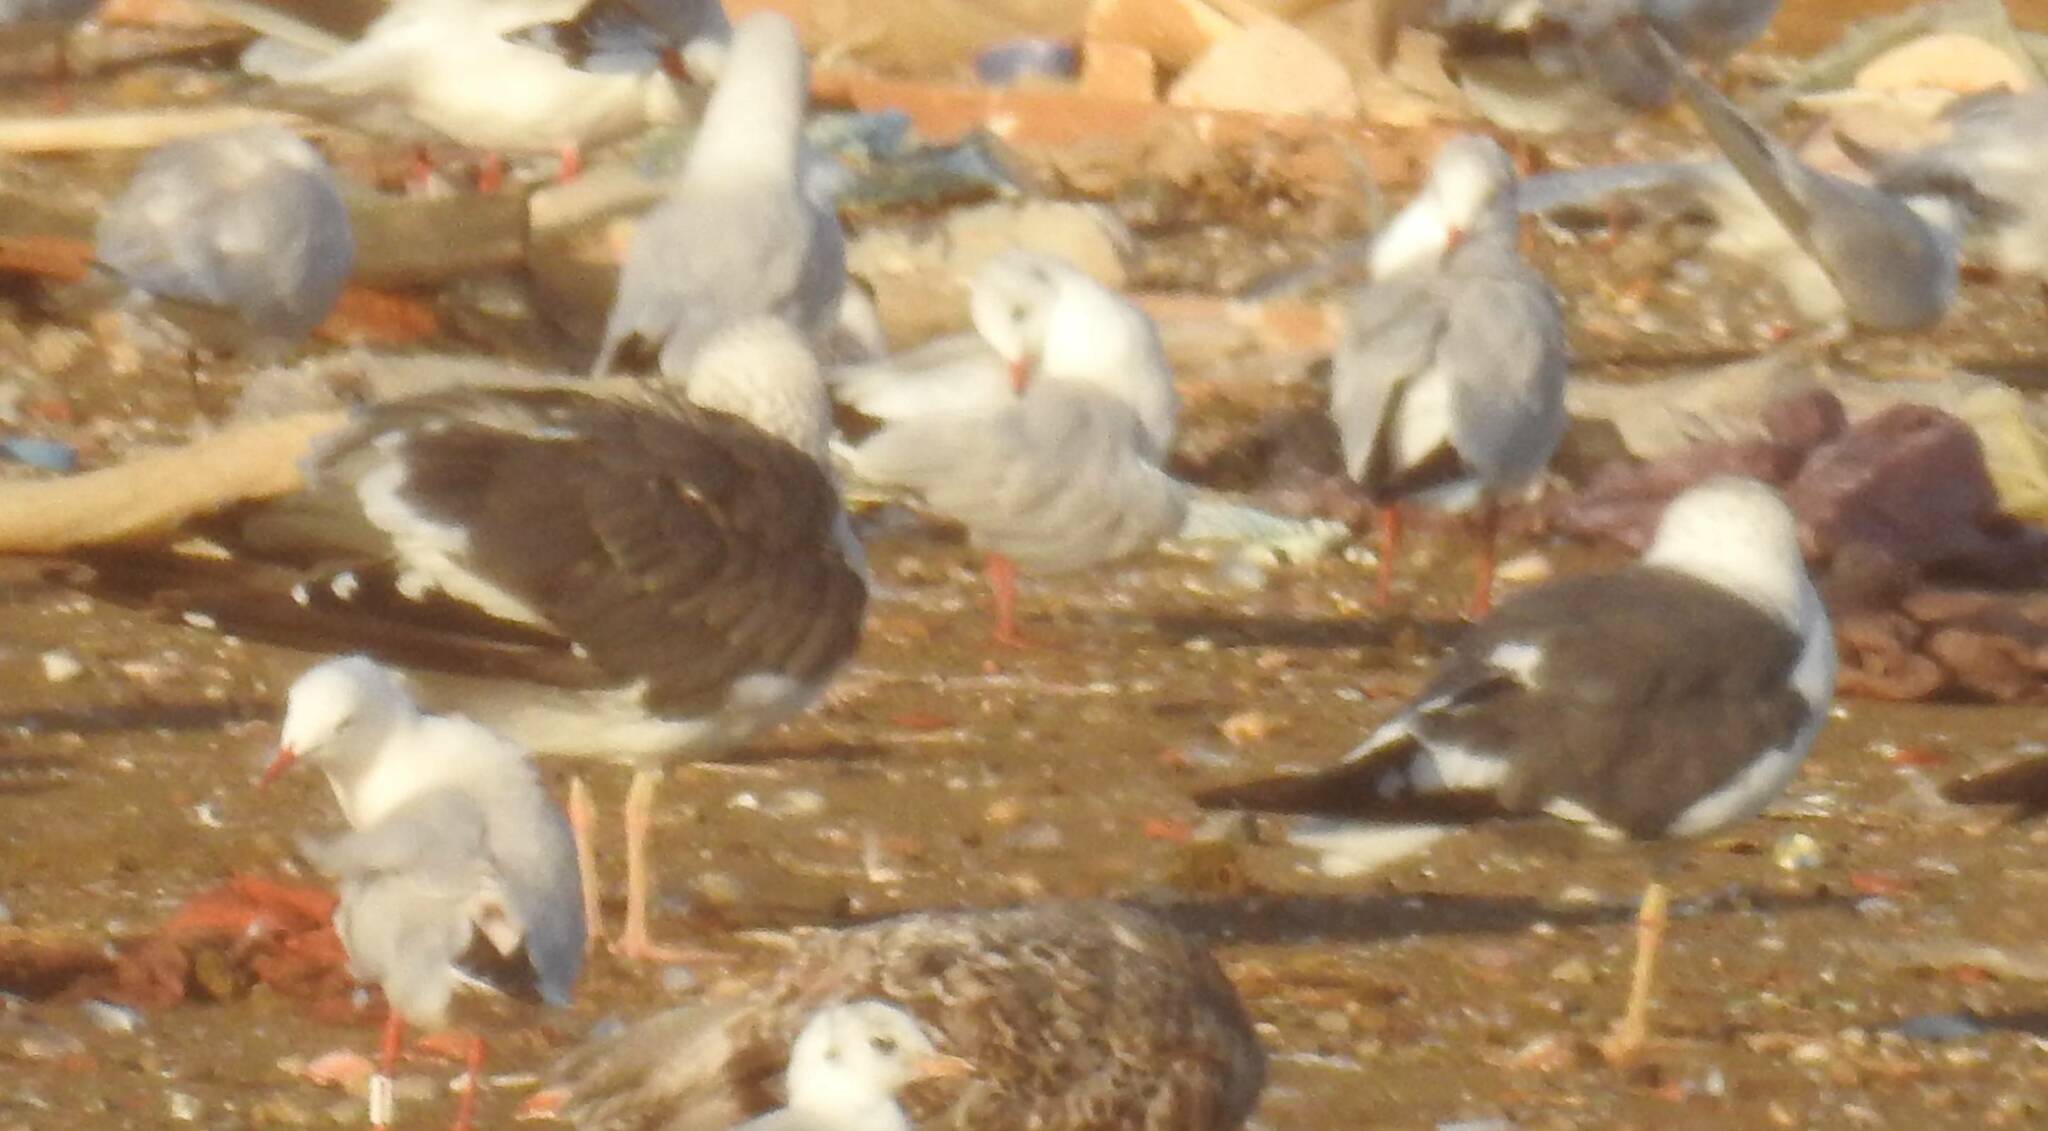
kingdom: Animalia
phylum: Chordata
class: Aves
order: Charadriiformes
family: Laridae
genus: Larus
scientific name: Larus fuscus
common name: Lesser black-backed gull
